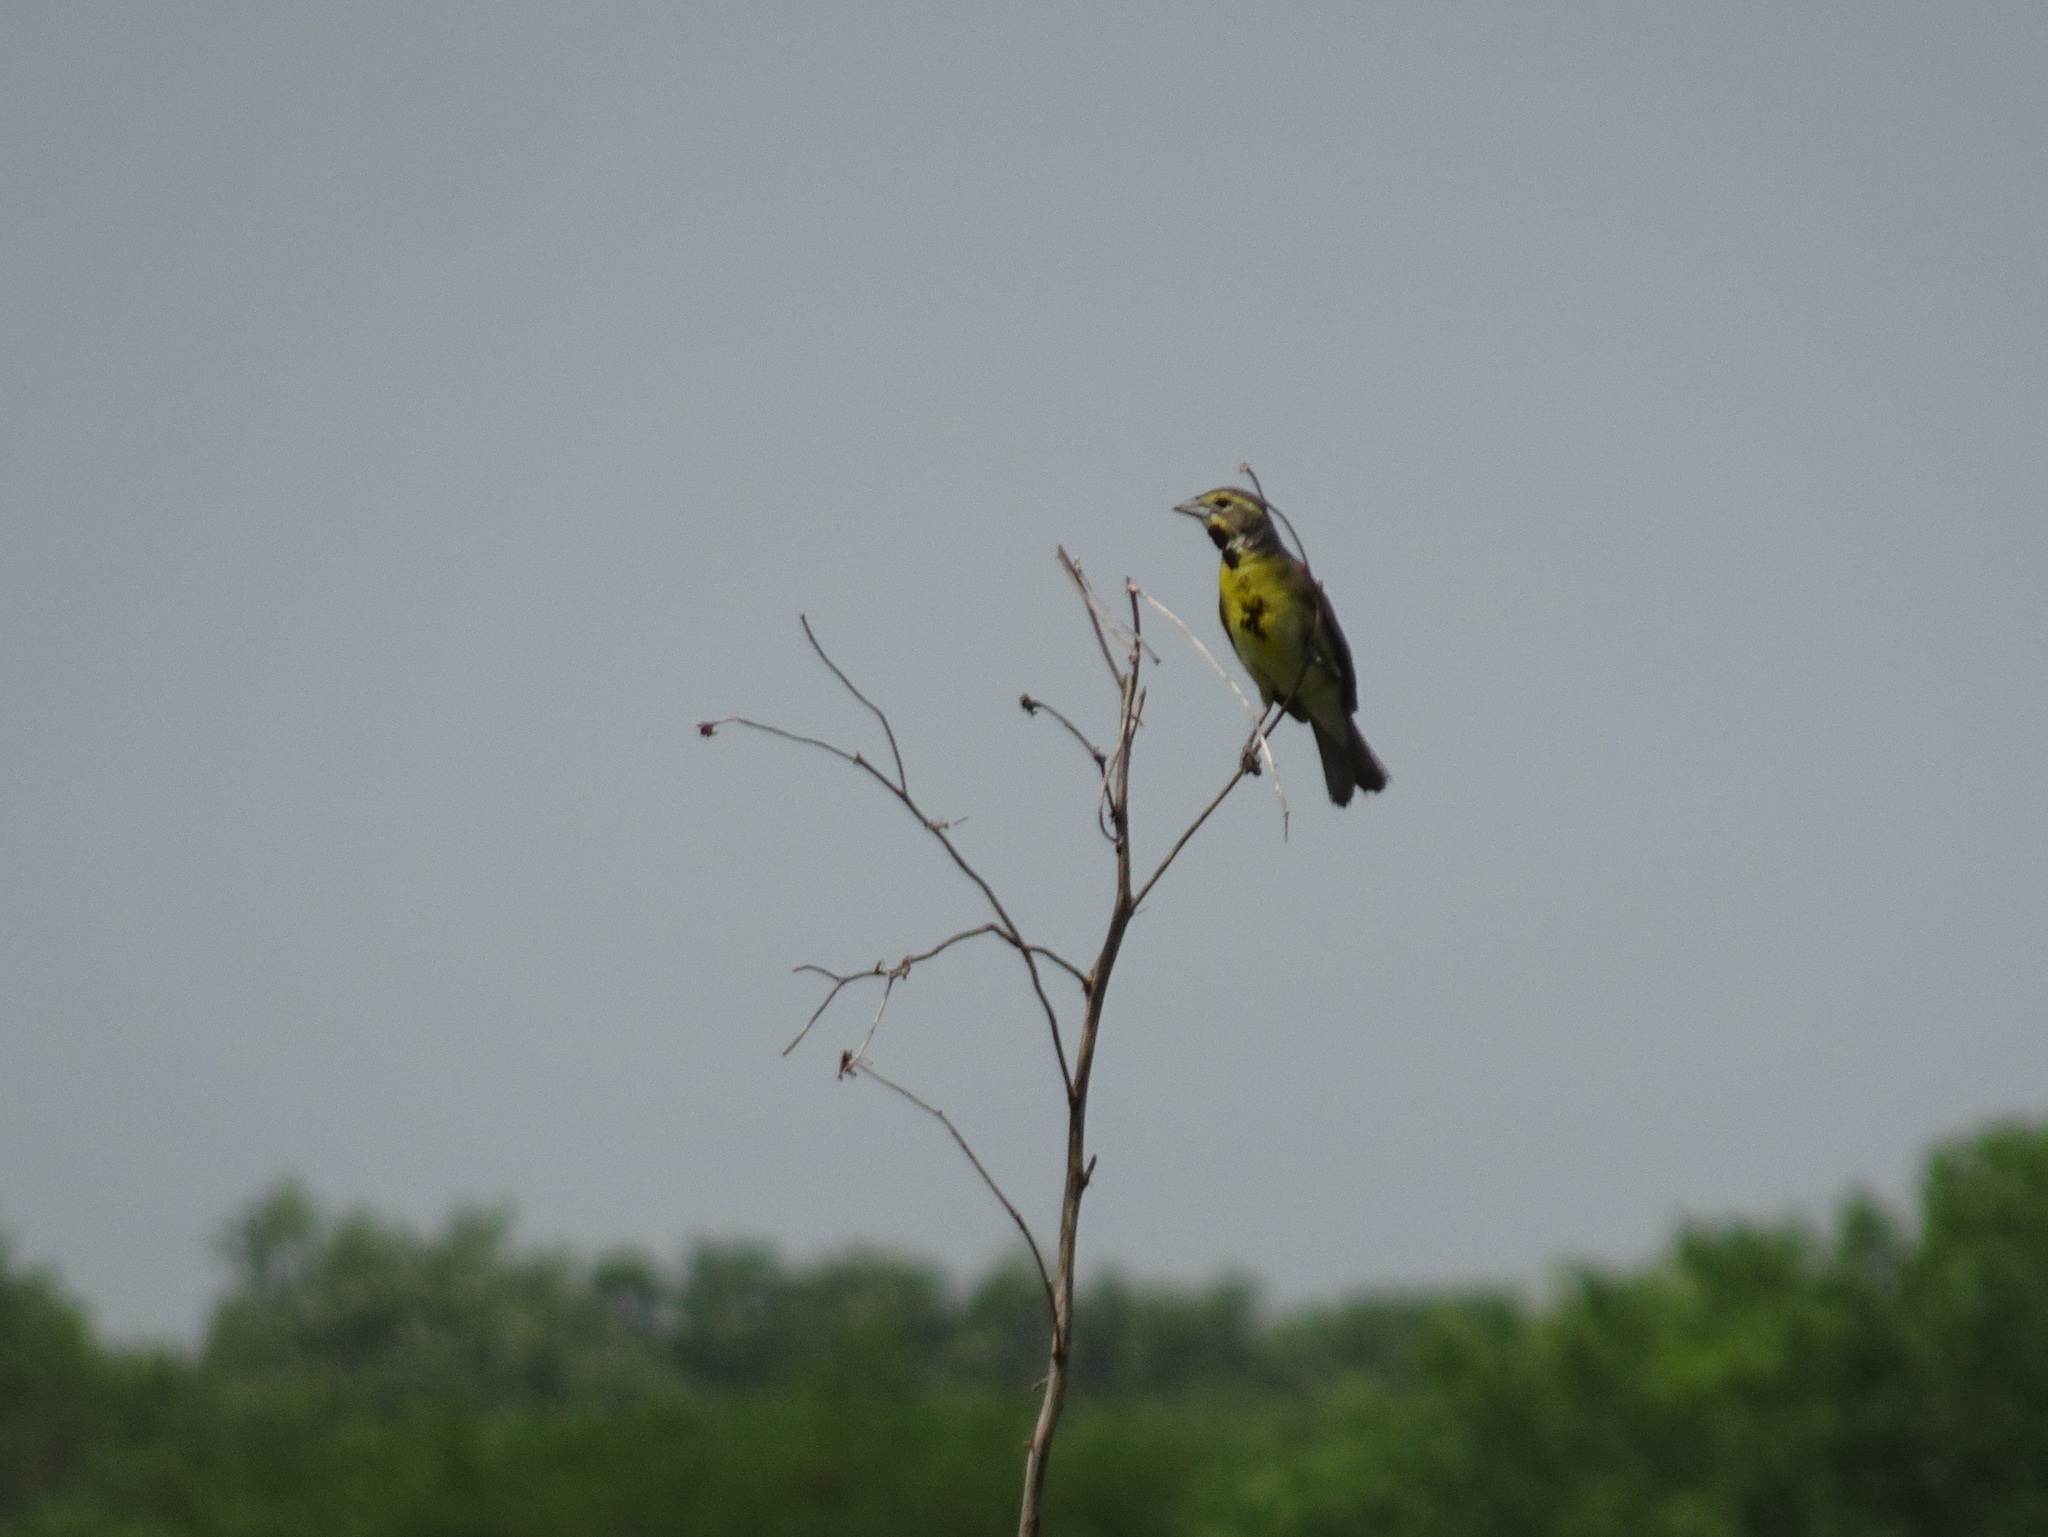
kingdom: Animalia
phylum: Chordata
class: Aves
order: Passeriformes
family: Cardinalidae
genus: Spiza
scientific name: Spiza americana
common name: Dickcissel
